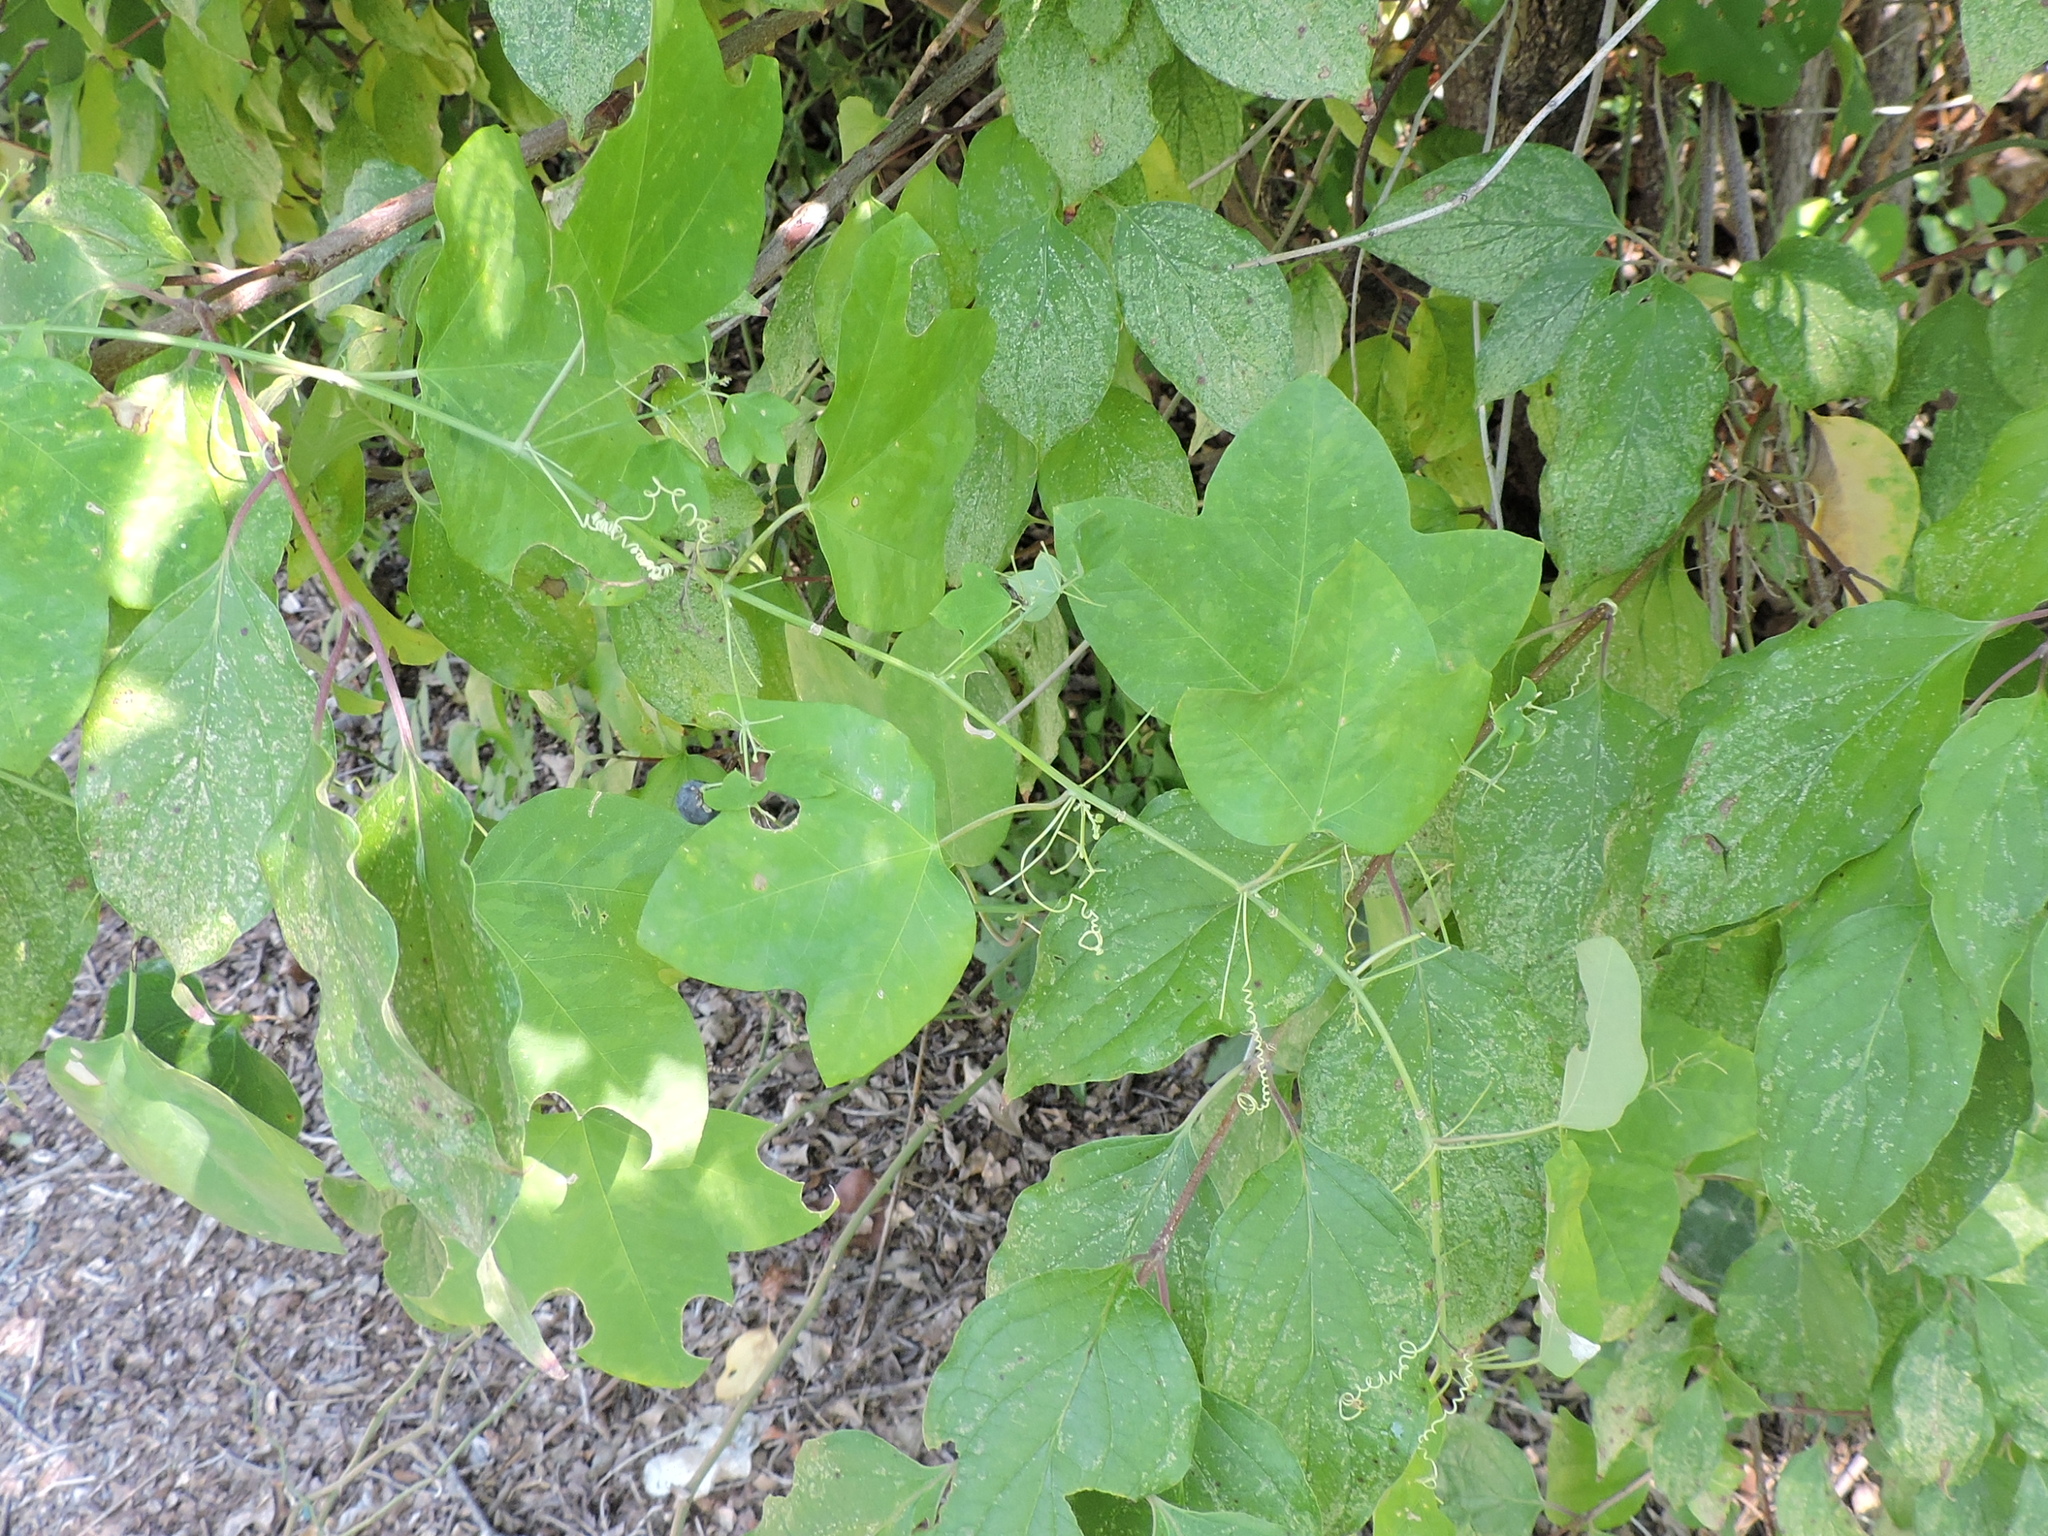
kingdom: Plantae
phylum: Tracheophyta
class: Magnoliopsida
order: Malpighiales
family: Passifloraceae
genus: Passiflora
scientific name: Passiflora lutea
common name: Yellow passionflower
